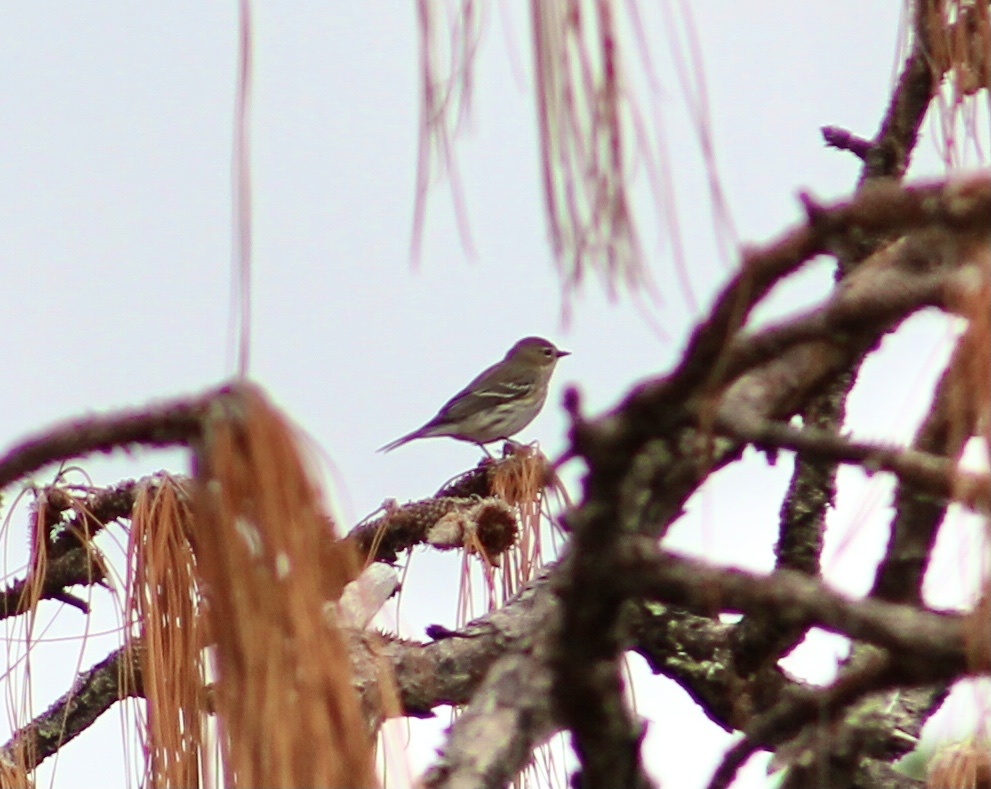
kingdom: Animalia
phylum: Chordata
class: Aves
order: Passeriformes
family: Parulidae
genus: Setophaga
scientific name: Setophaga coronata
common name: Myrtle warbler
